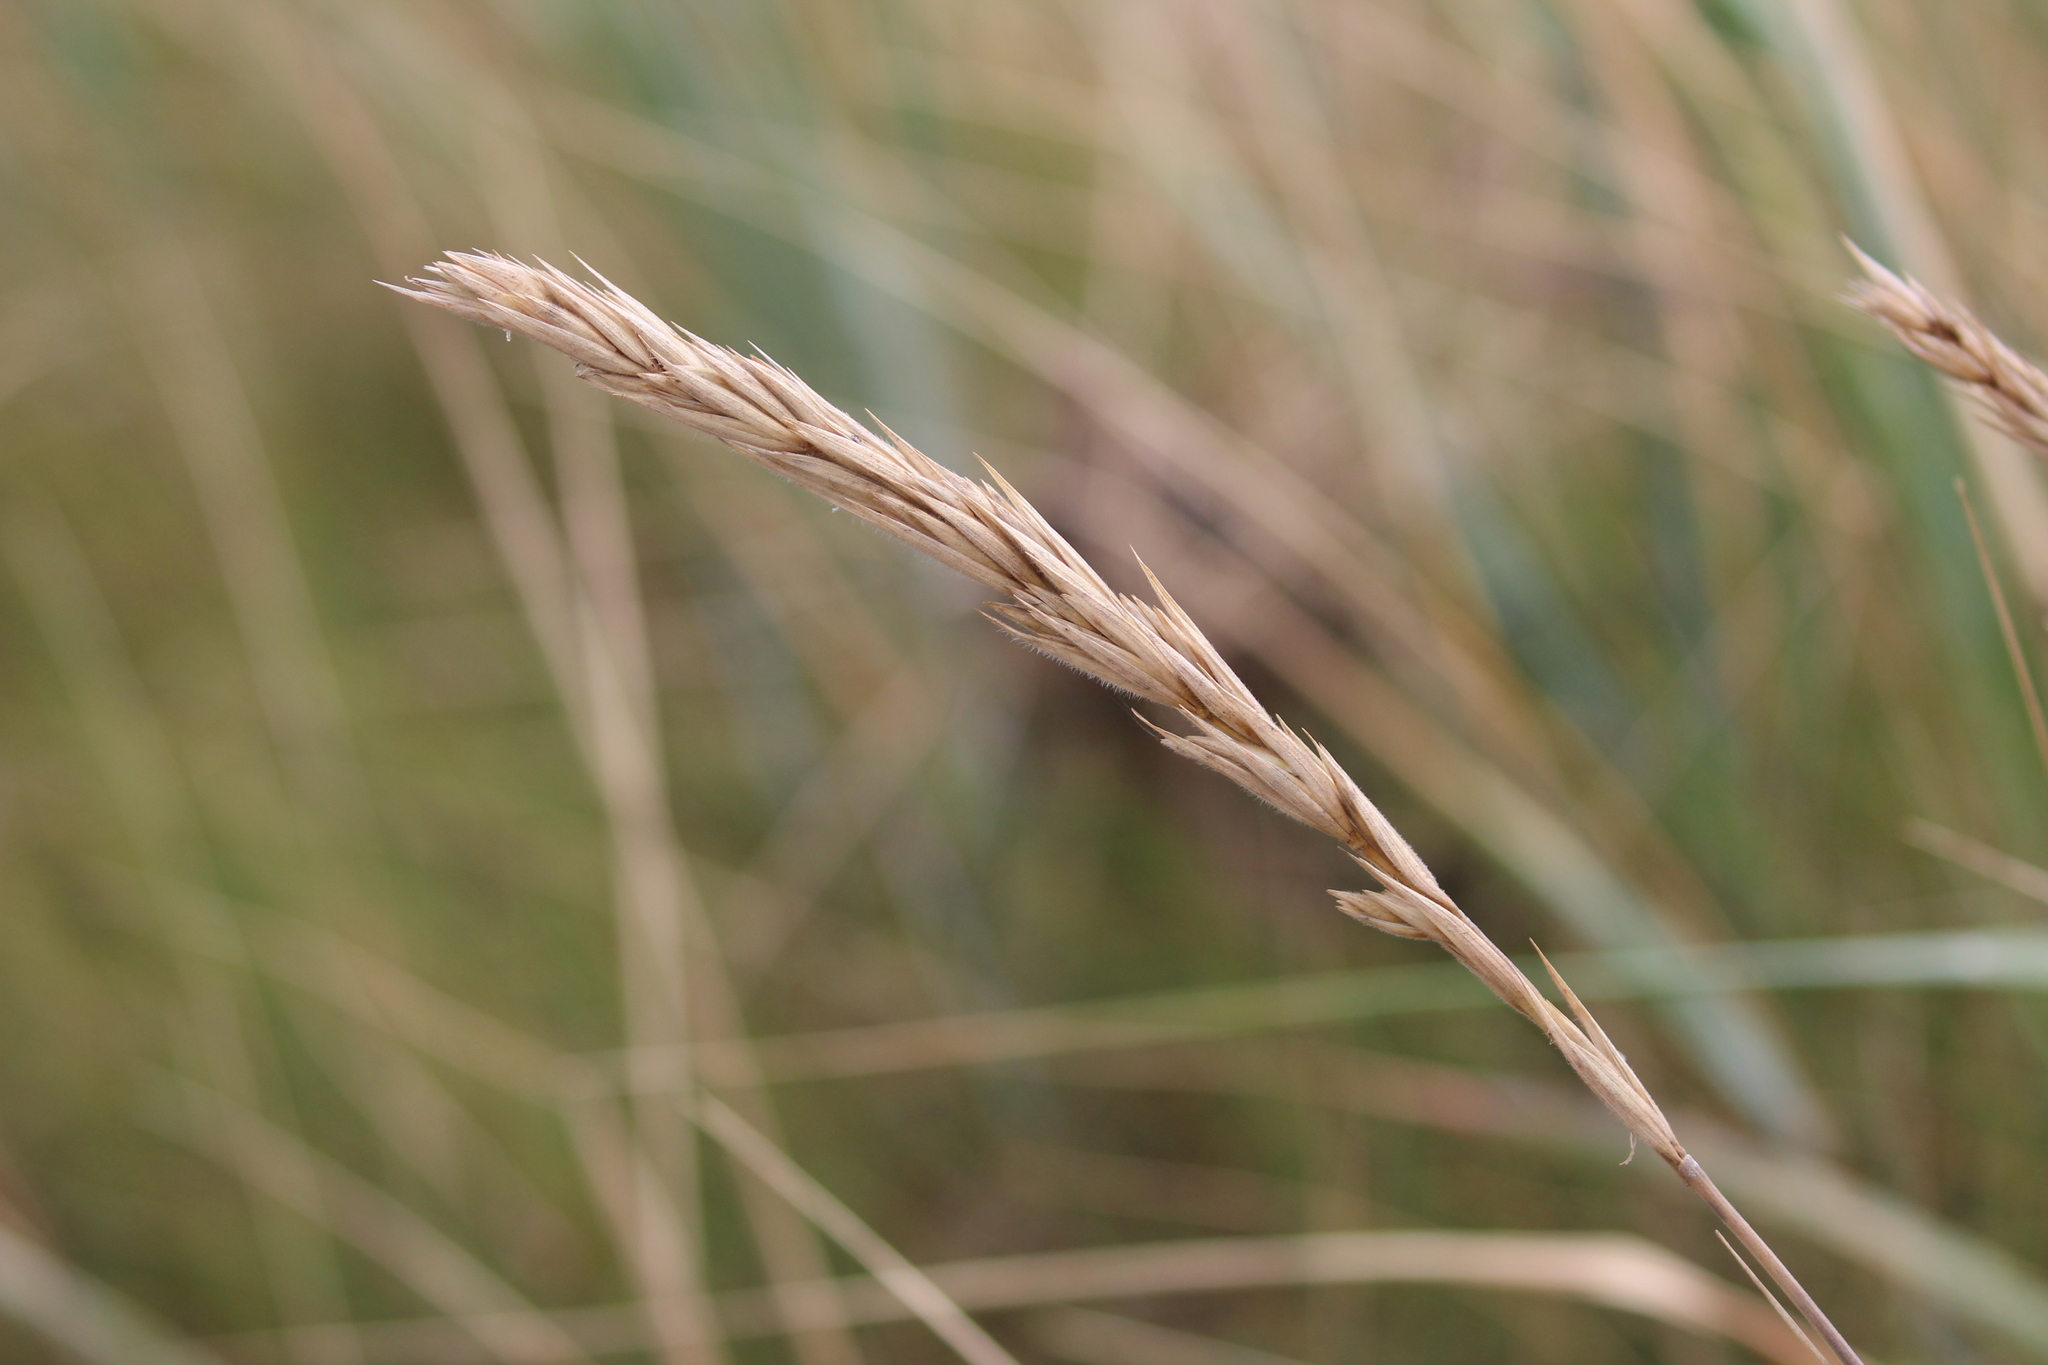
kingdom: Plantae
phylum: Tracheophyta
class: Liliopsida
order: Poales
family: Poaceae
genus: Leymus
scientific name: Leymus mollis
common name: American dune grass
